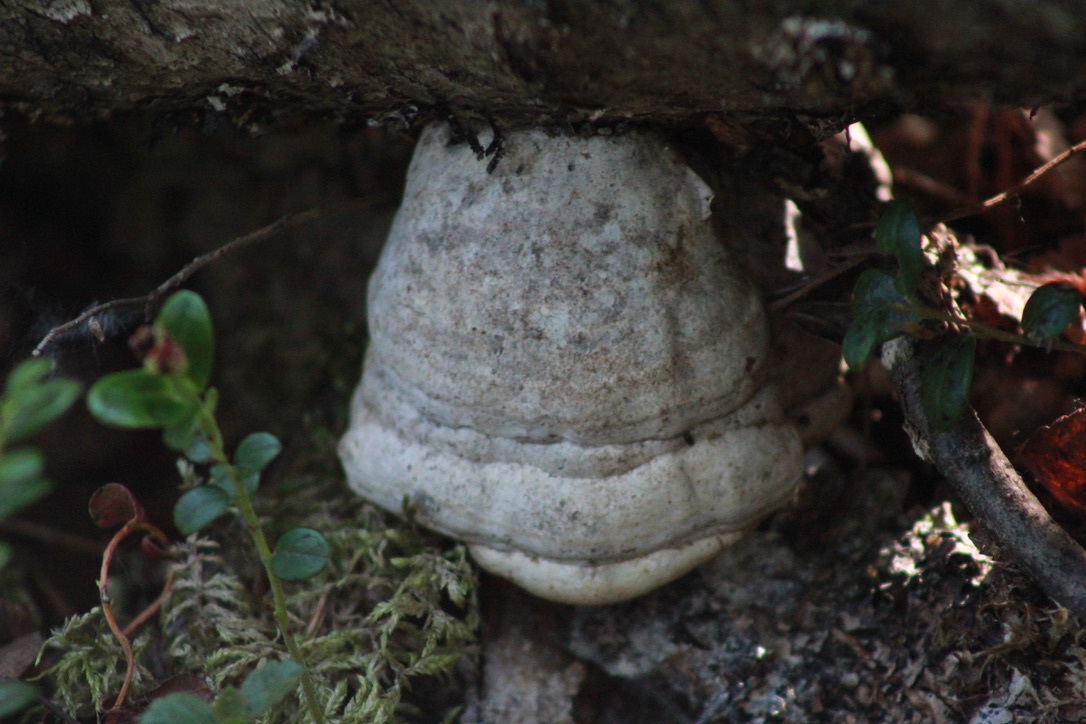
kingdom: Fungi
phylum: Basidiomycota
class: Agaricomycetes
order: Polyporales
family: Polyporaceae
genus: Fomes
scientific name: Fomes fomentarius
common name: Hoof fungus
